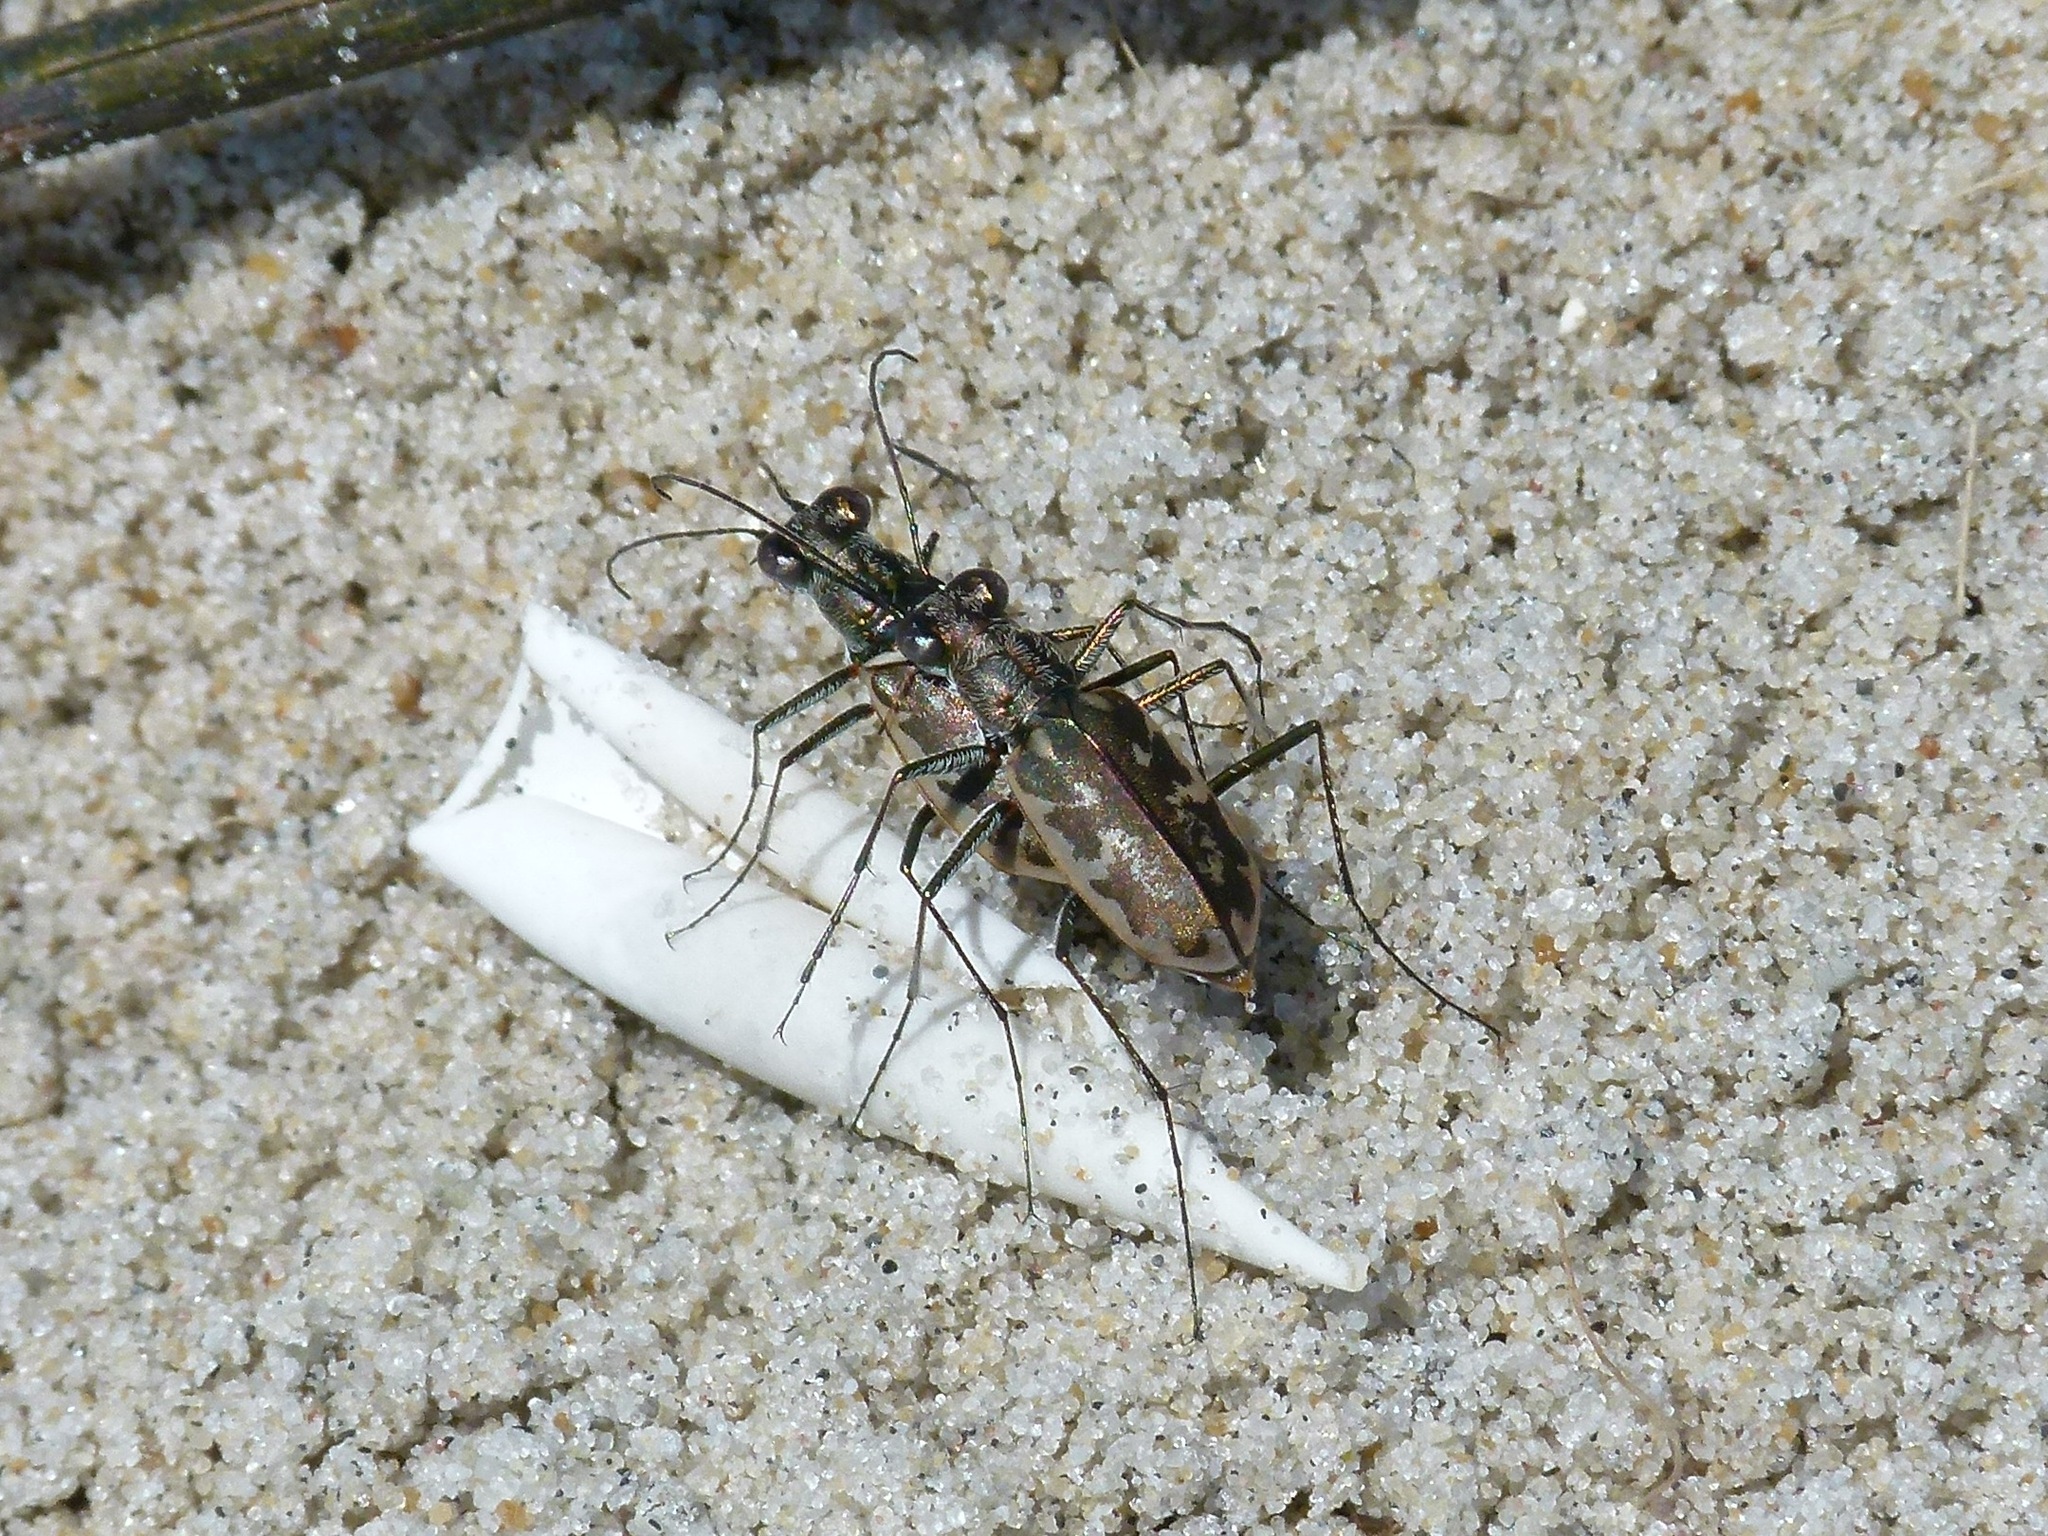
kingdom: Animalia
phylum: Arthropoda
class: Insecta
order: Coleoptera
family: Carabidae
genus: Ellipsoptera
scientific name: Ellipsoptera marginata
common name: Margined tiger beetle
